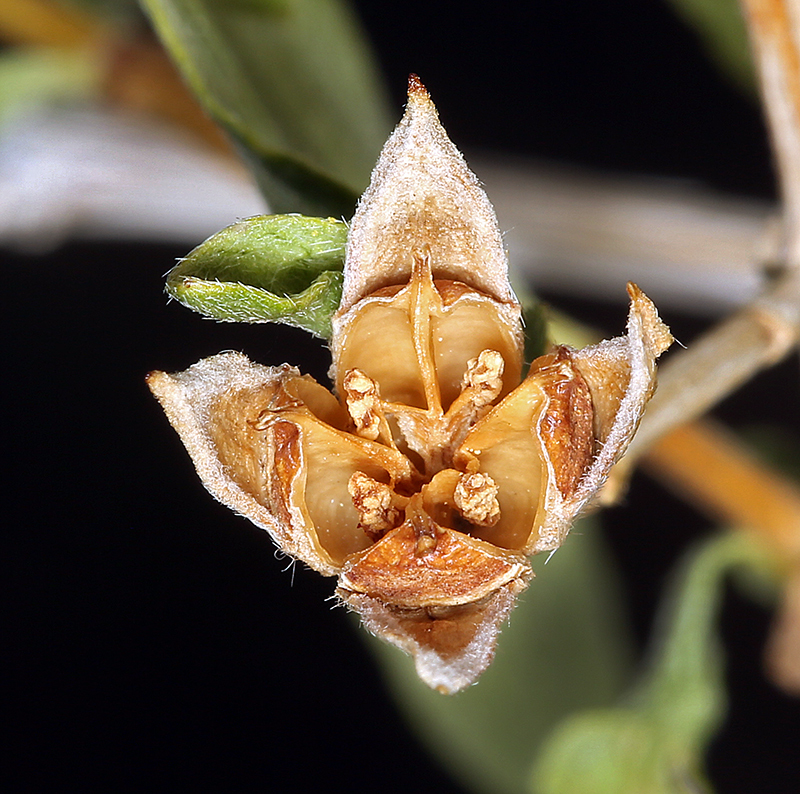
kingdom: Plantae
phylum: Tracheophyta
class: Magnoliopsida
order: Cornales
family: Hydrangeaceae
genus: Philadelphus
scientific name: Philadelphus microphyllus
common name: Desert mock orange
